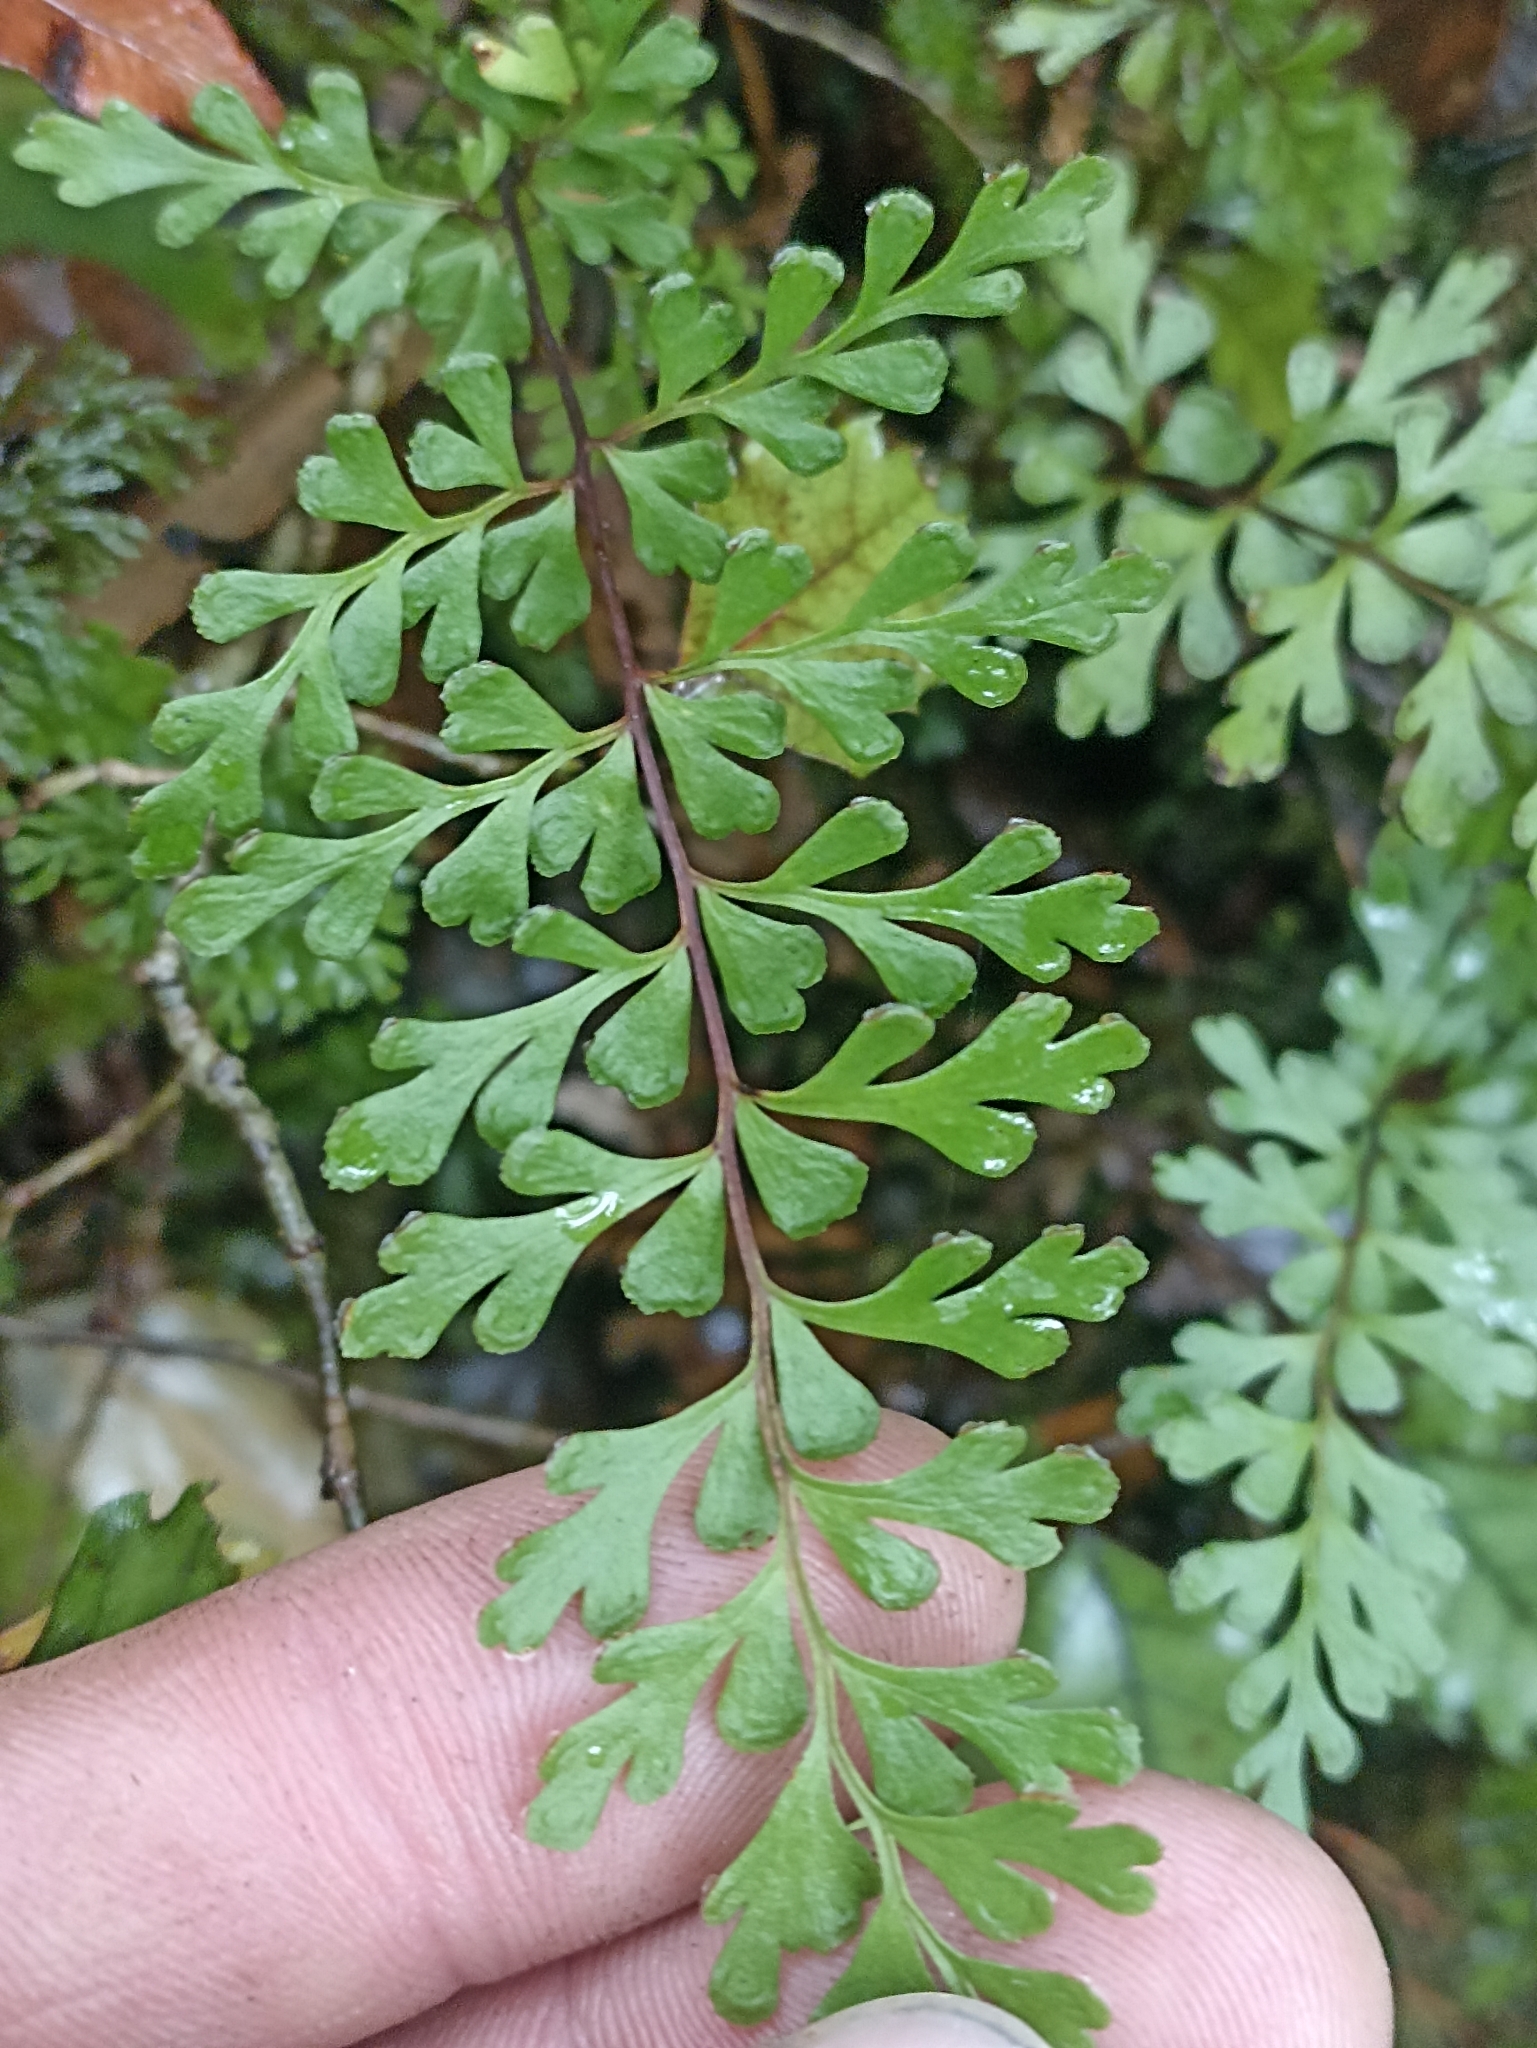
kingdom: Plantae
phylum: Tracheophyta
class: Polypodiopsida
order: Polypodiales
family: Lindsaeaceae
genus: Lindsaea
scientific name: Lindsaea trichomanoides
